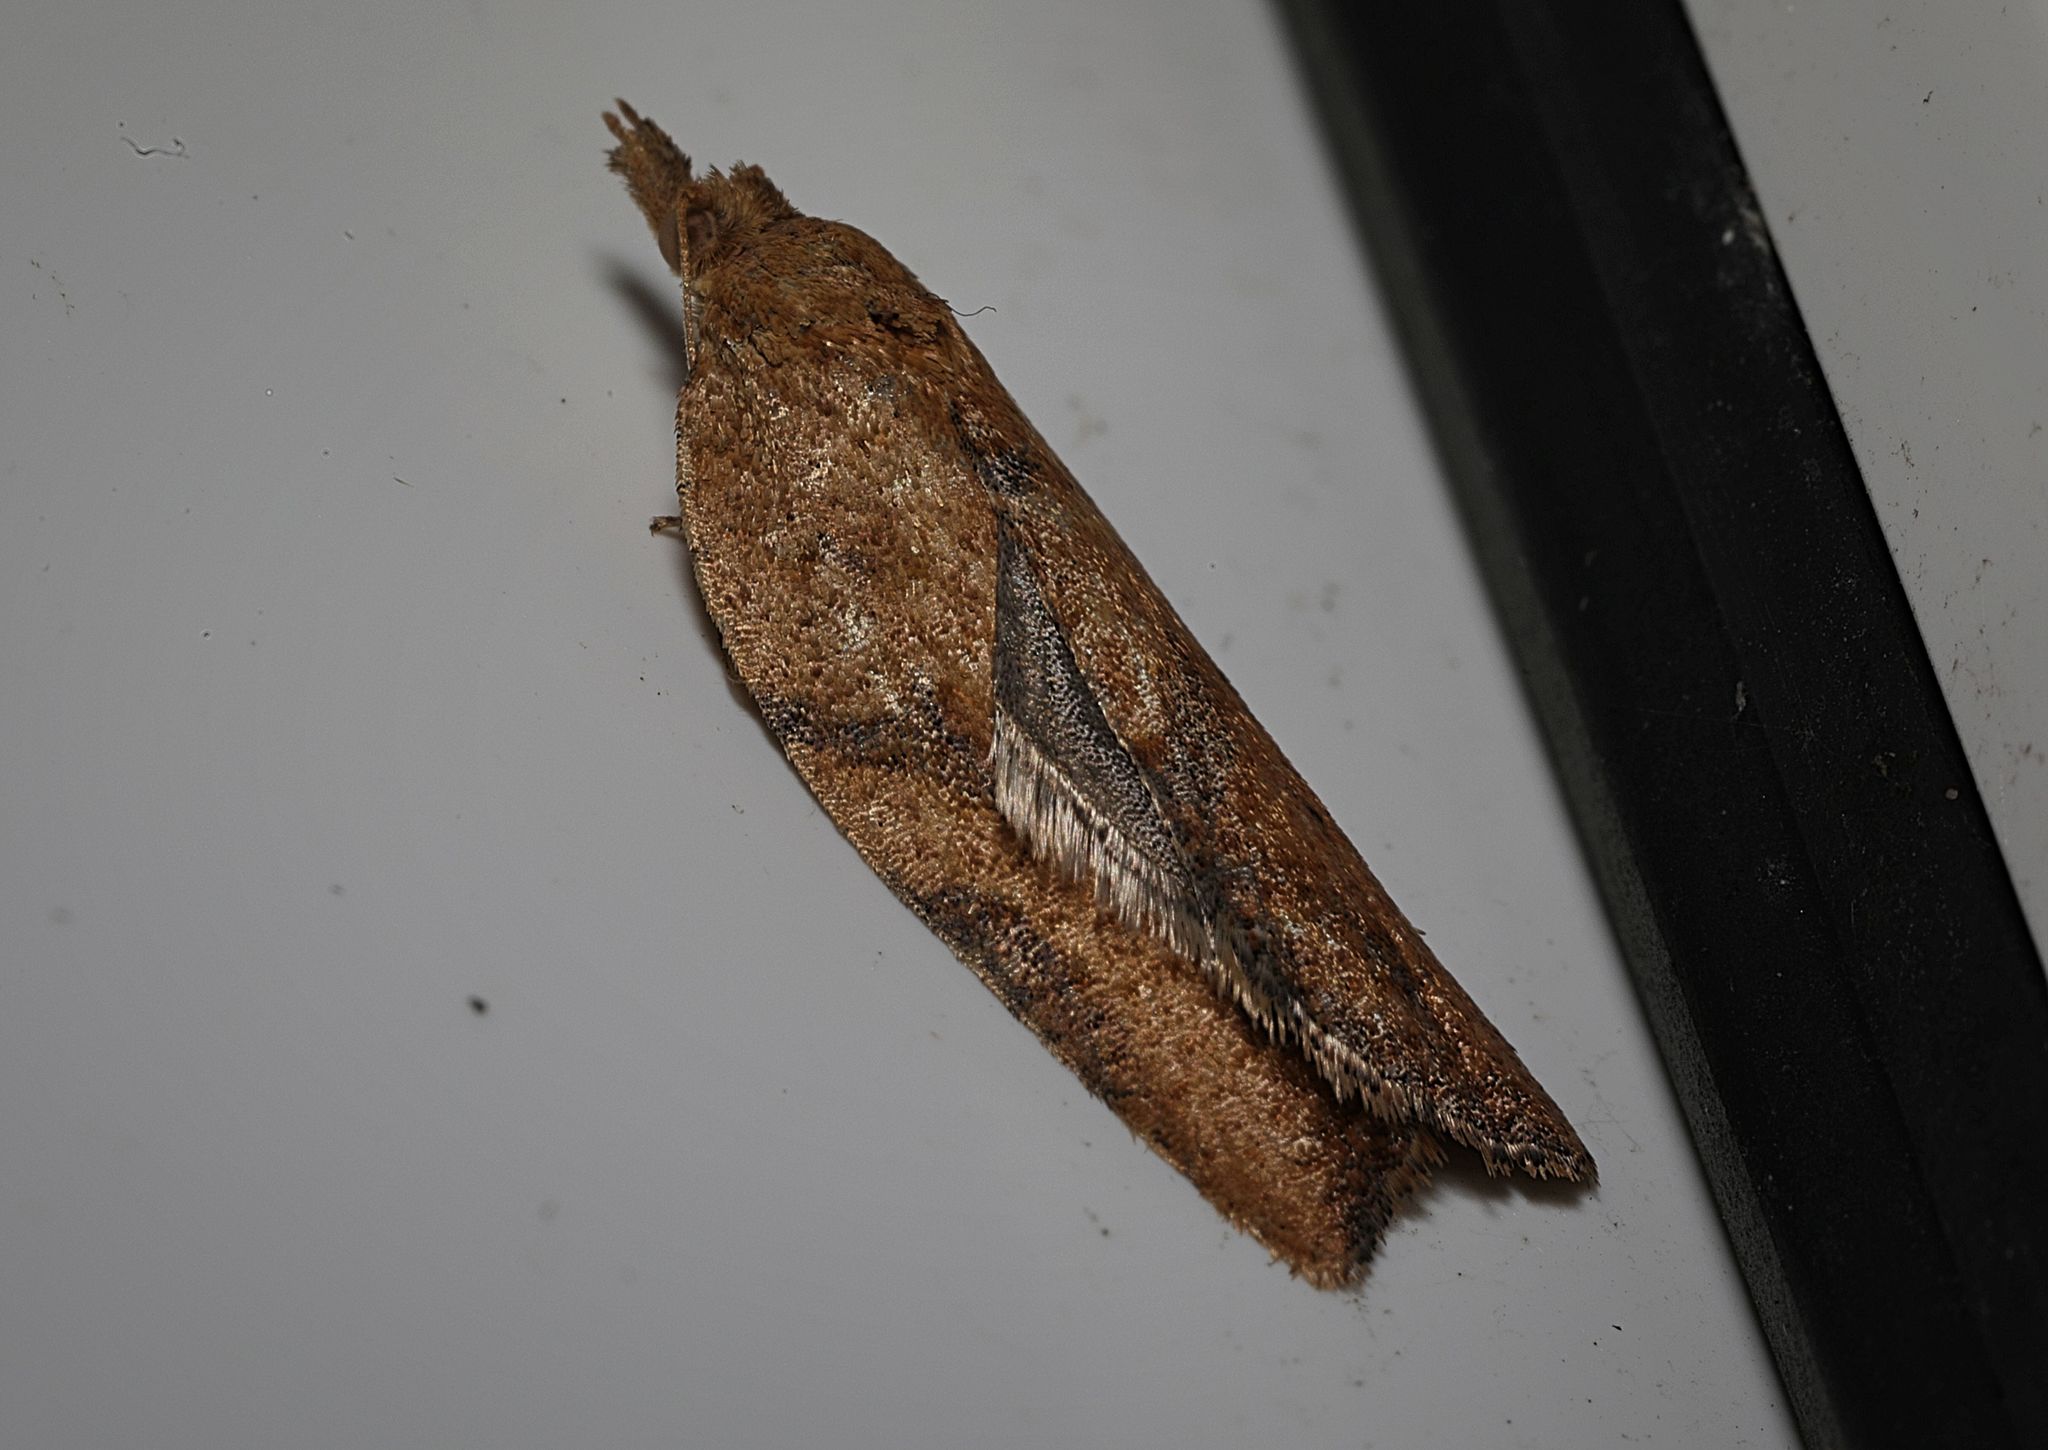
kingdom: Animalia
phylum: Arthropoda
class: Insecta
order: Lepidoptera
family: Tortricidae
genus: Epiphyas
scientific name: Epiphyas postvittana
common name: Light brown apple moth
